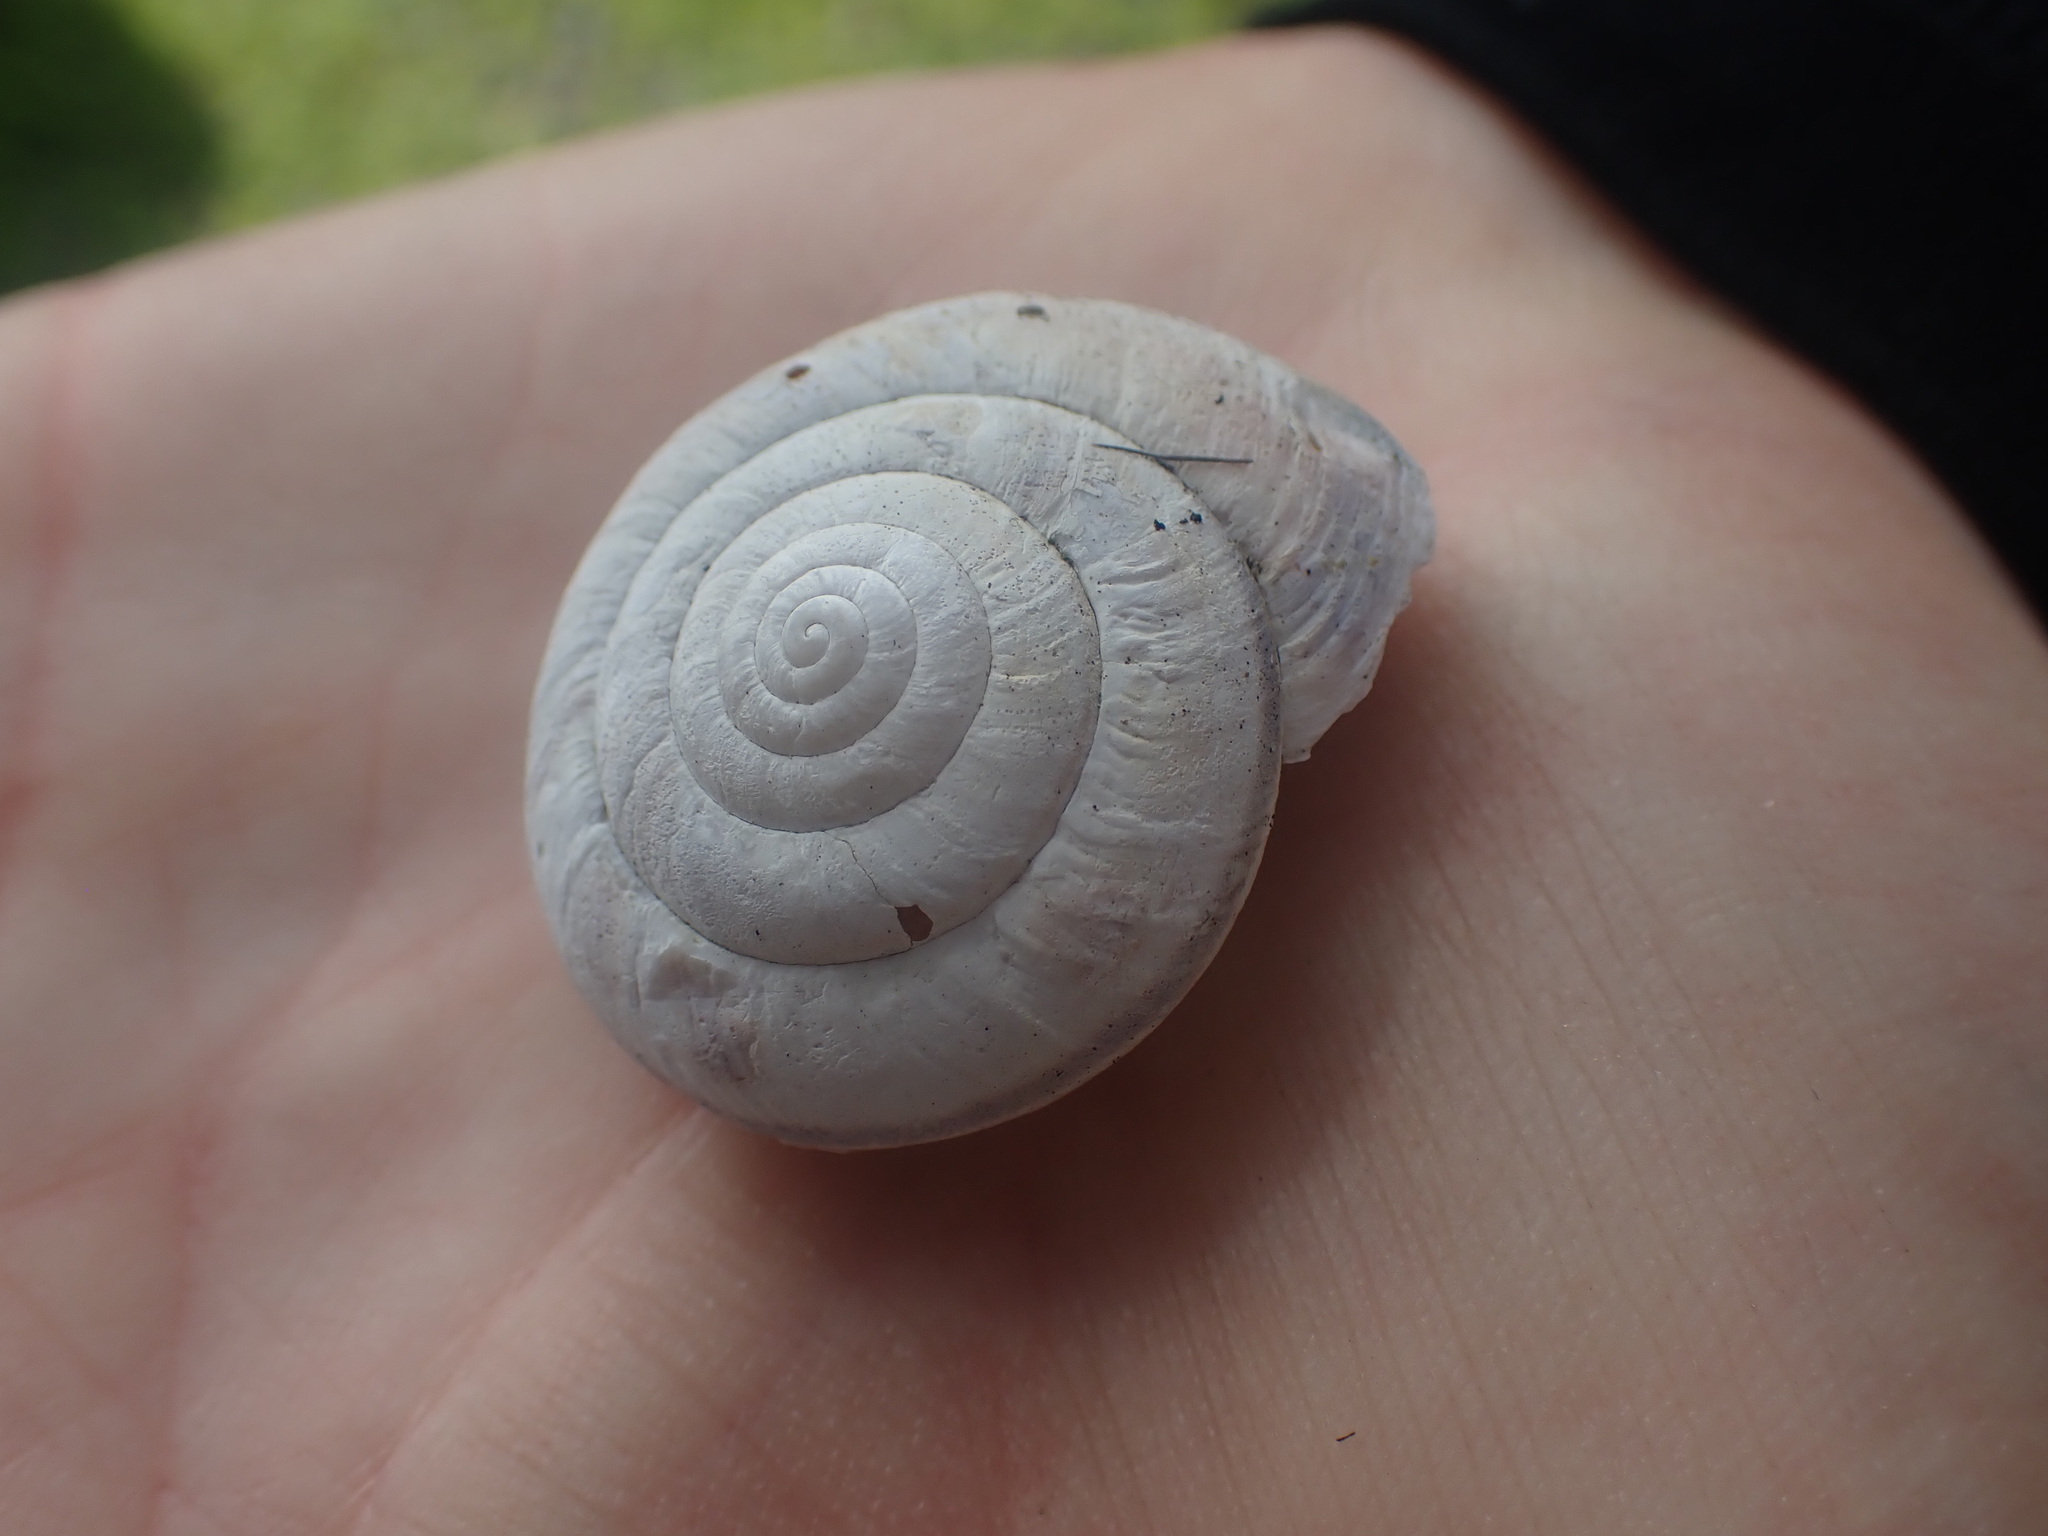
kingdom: Animalia
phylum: Mollusca
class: Gastropoda
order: Stylommatophora
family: Xanthonychidae
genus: Monadenia
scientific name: Monadenia fidelis
